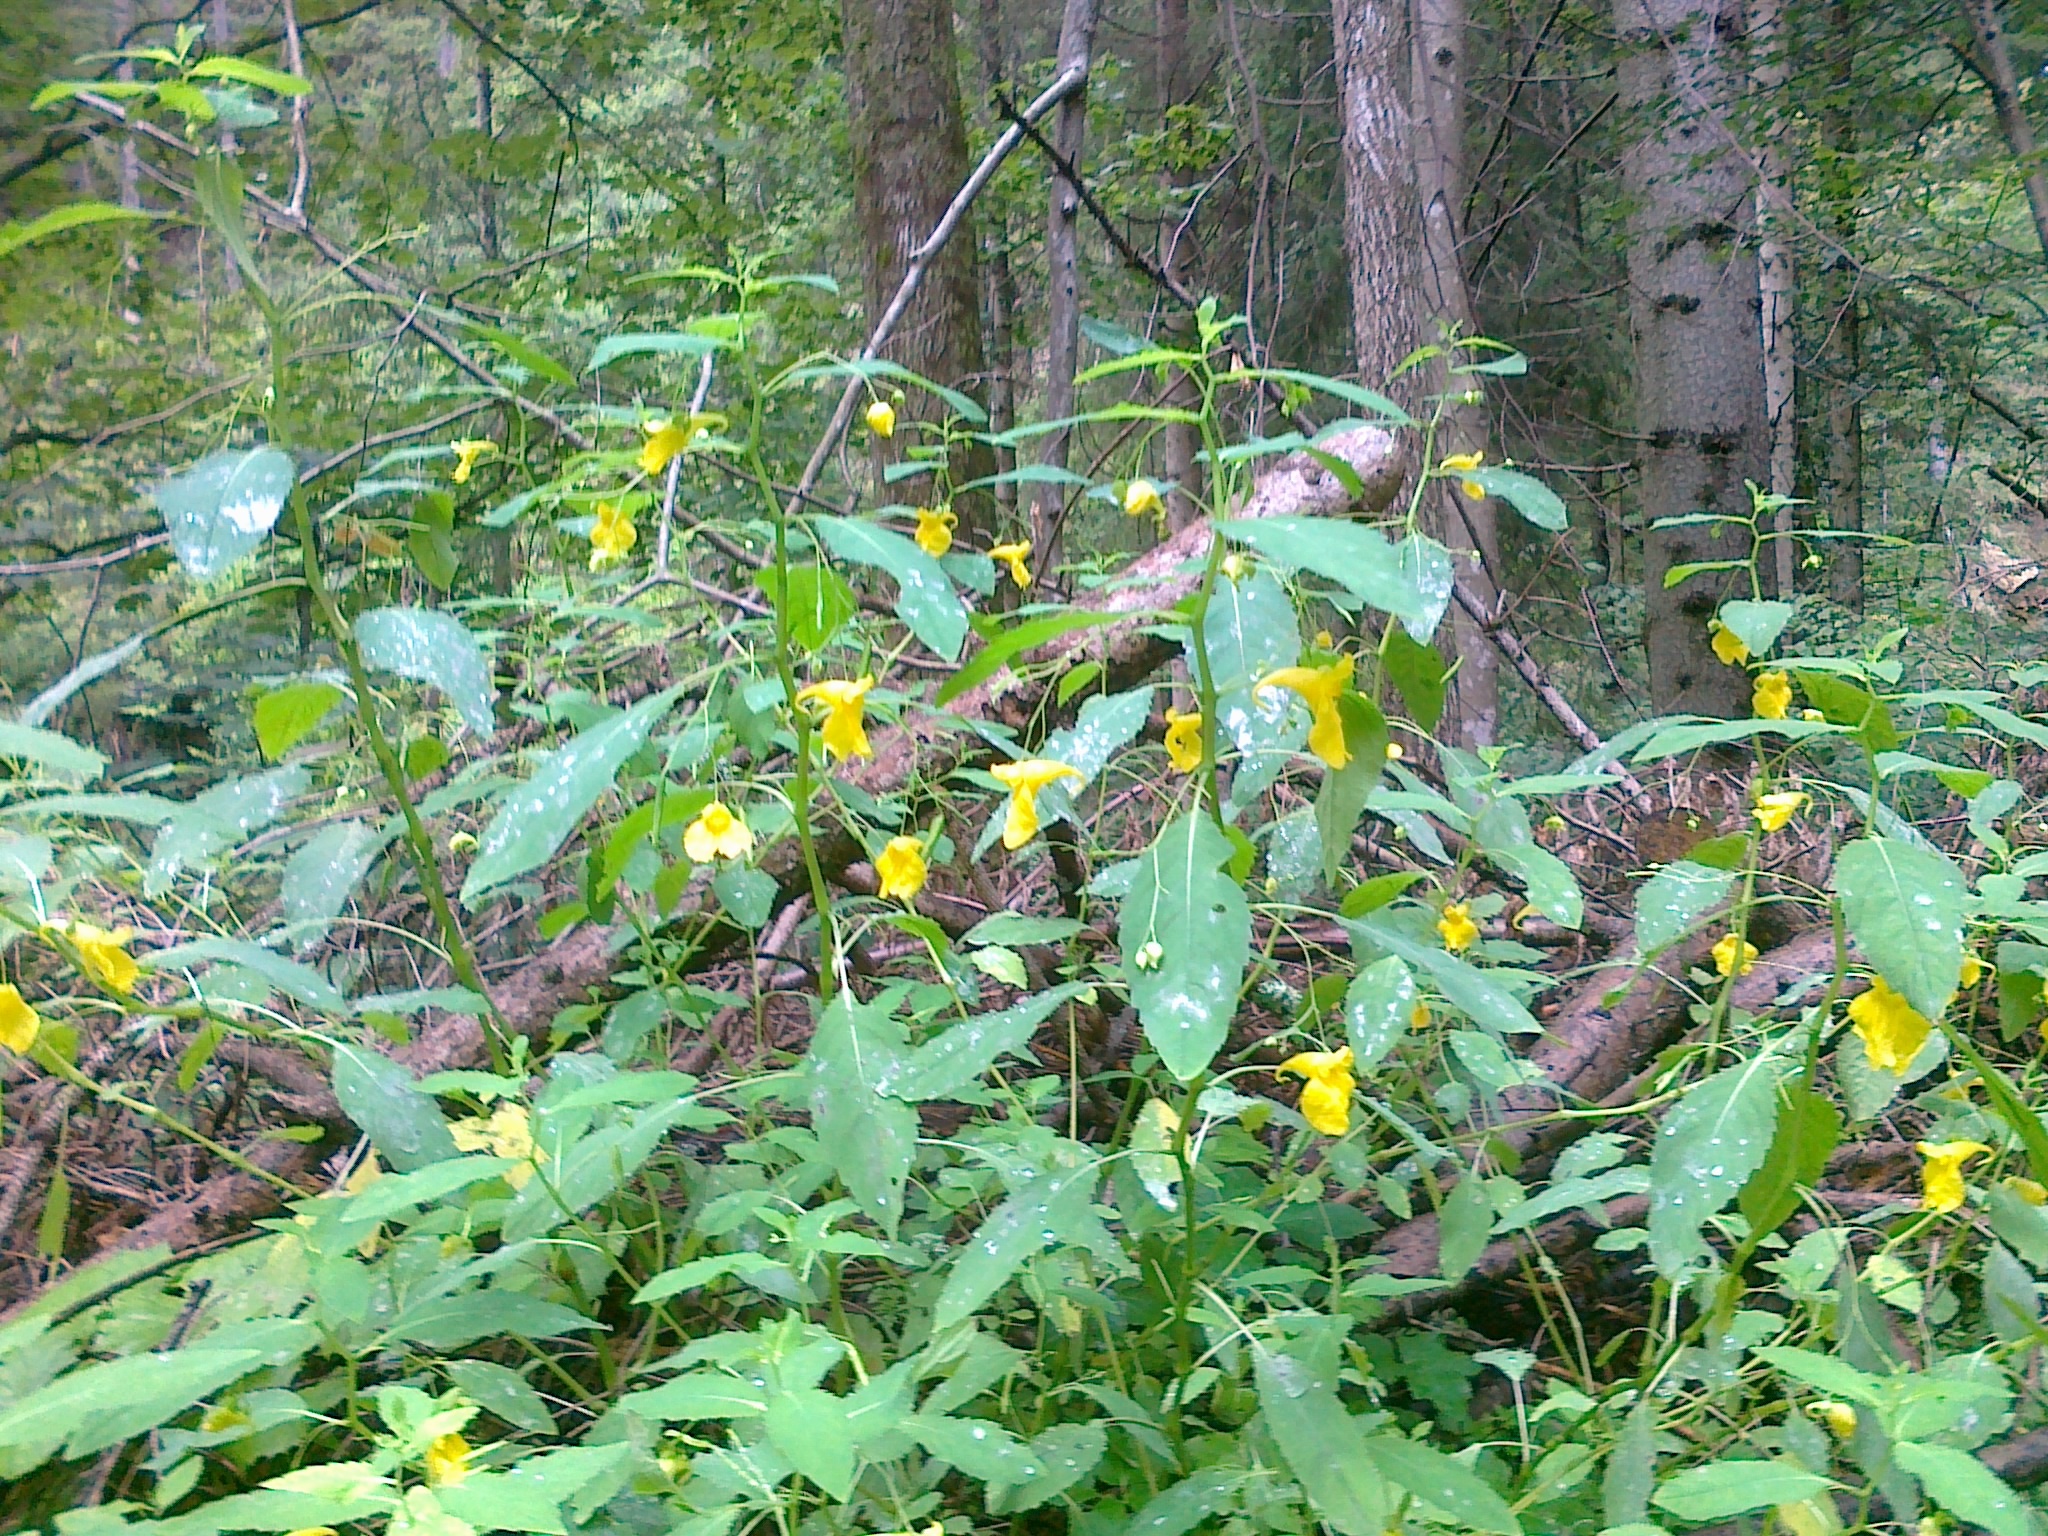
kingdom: Plantae
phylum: Tracheophyta
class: Magnoliopsida
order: Ericales
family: Balsaminaceae
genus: Impatiens
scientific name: Impatiens noli-tangere
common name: Touch-me-not balsam
